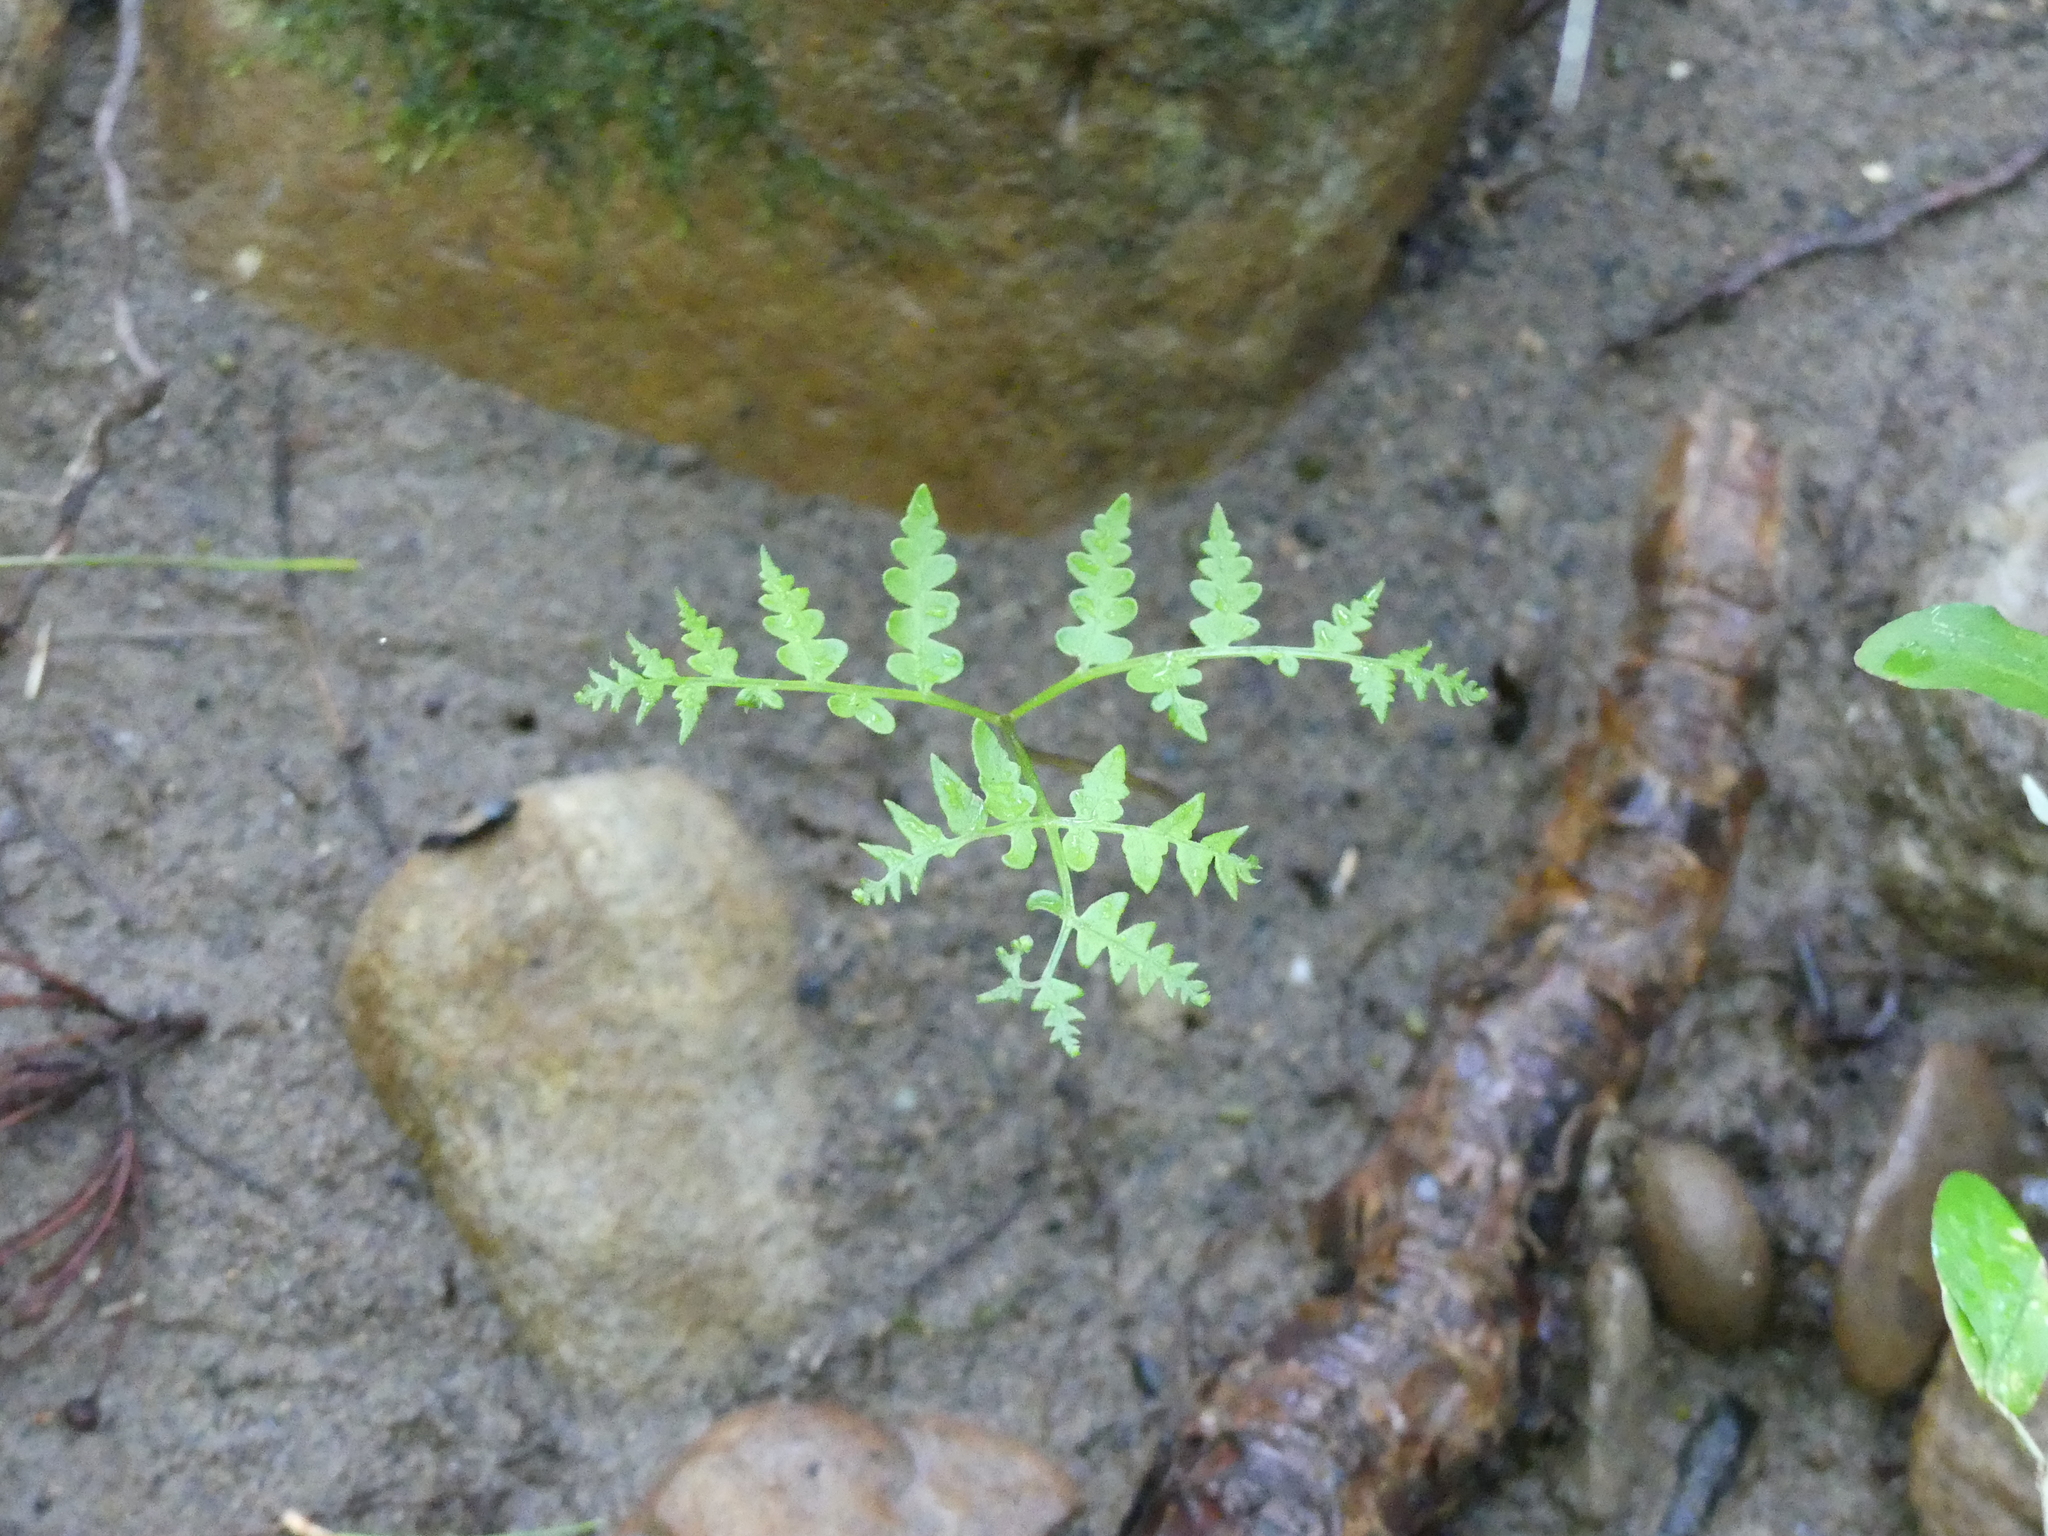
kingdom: Plantae
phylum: Tracheophyta
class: Polypodiopsida
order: Polypodiales
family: Dennstaedtiaceae
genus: Pteridium
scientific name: Pteridium aquilinum
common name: Bracken
